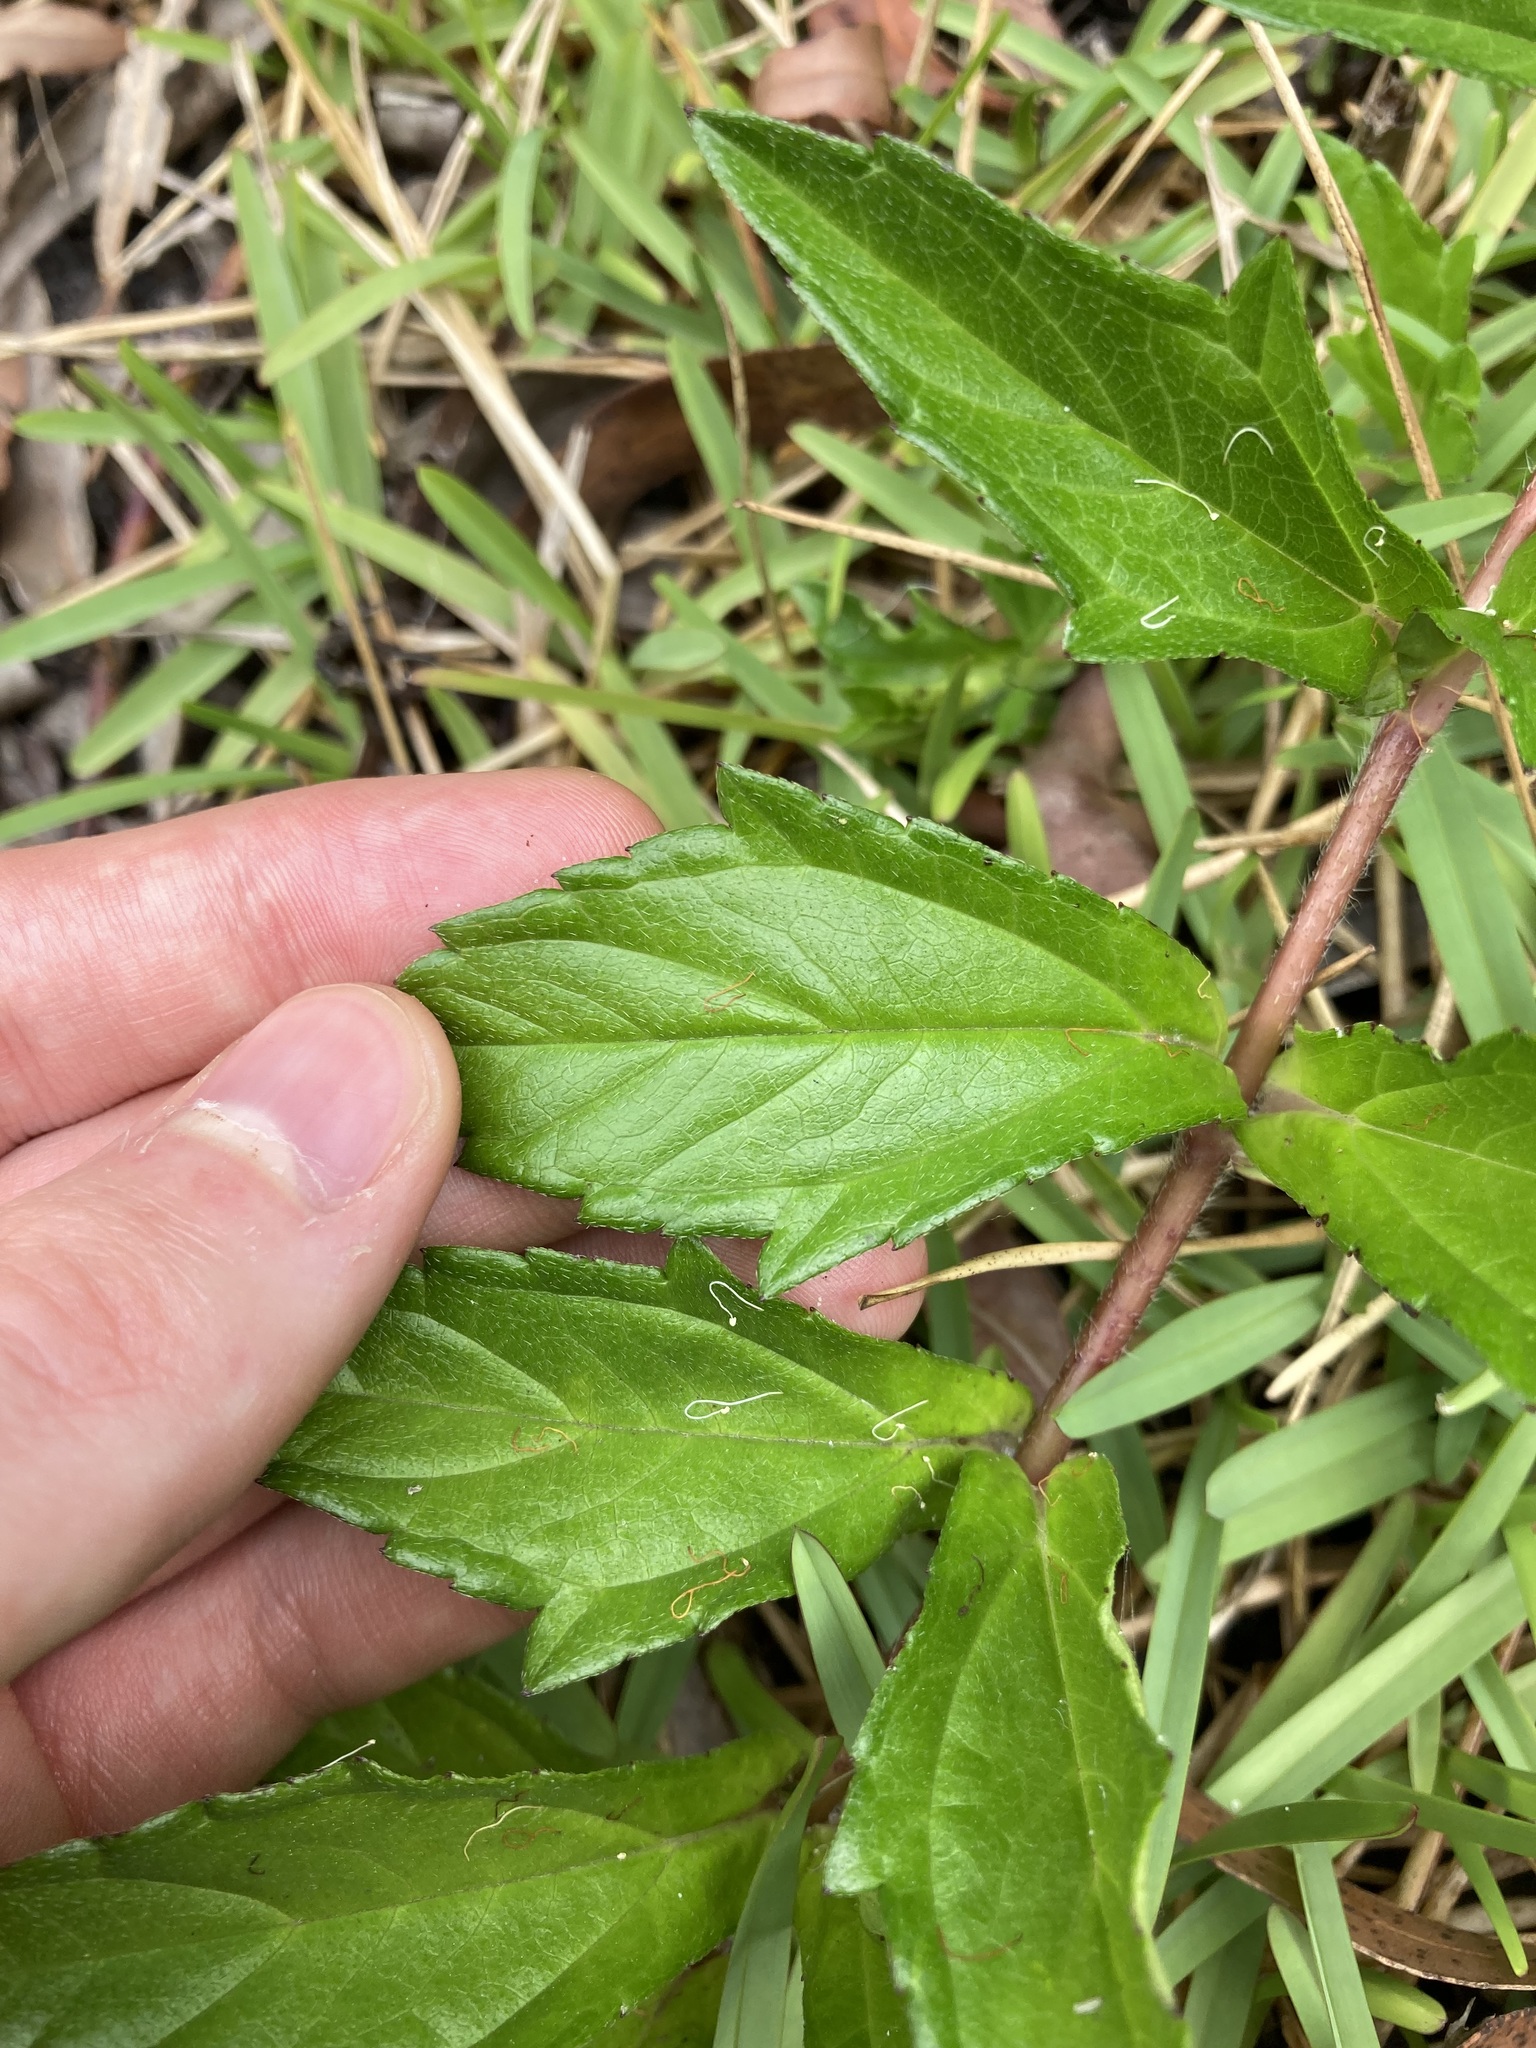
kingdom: Plantae
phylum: Tracheophyta
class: Magnoliopsida
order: Asterales
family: Asteraceae
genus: Sphagneticola
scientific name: Sphagneticola trilobata
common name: Bay biscayne creeping-oxeye
